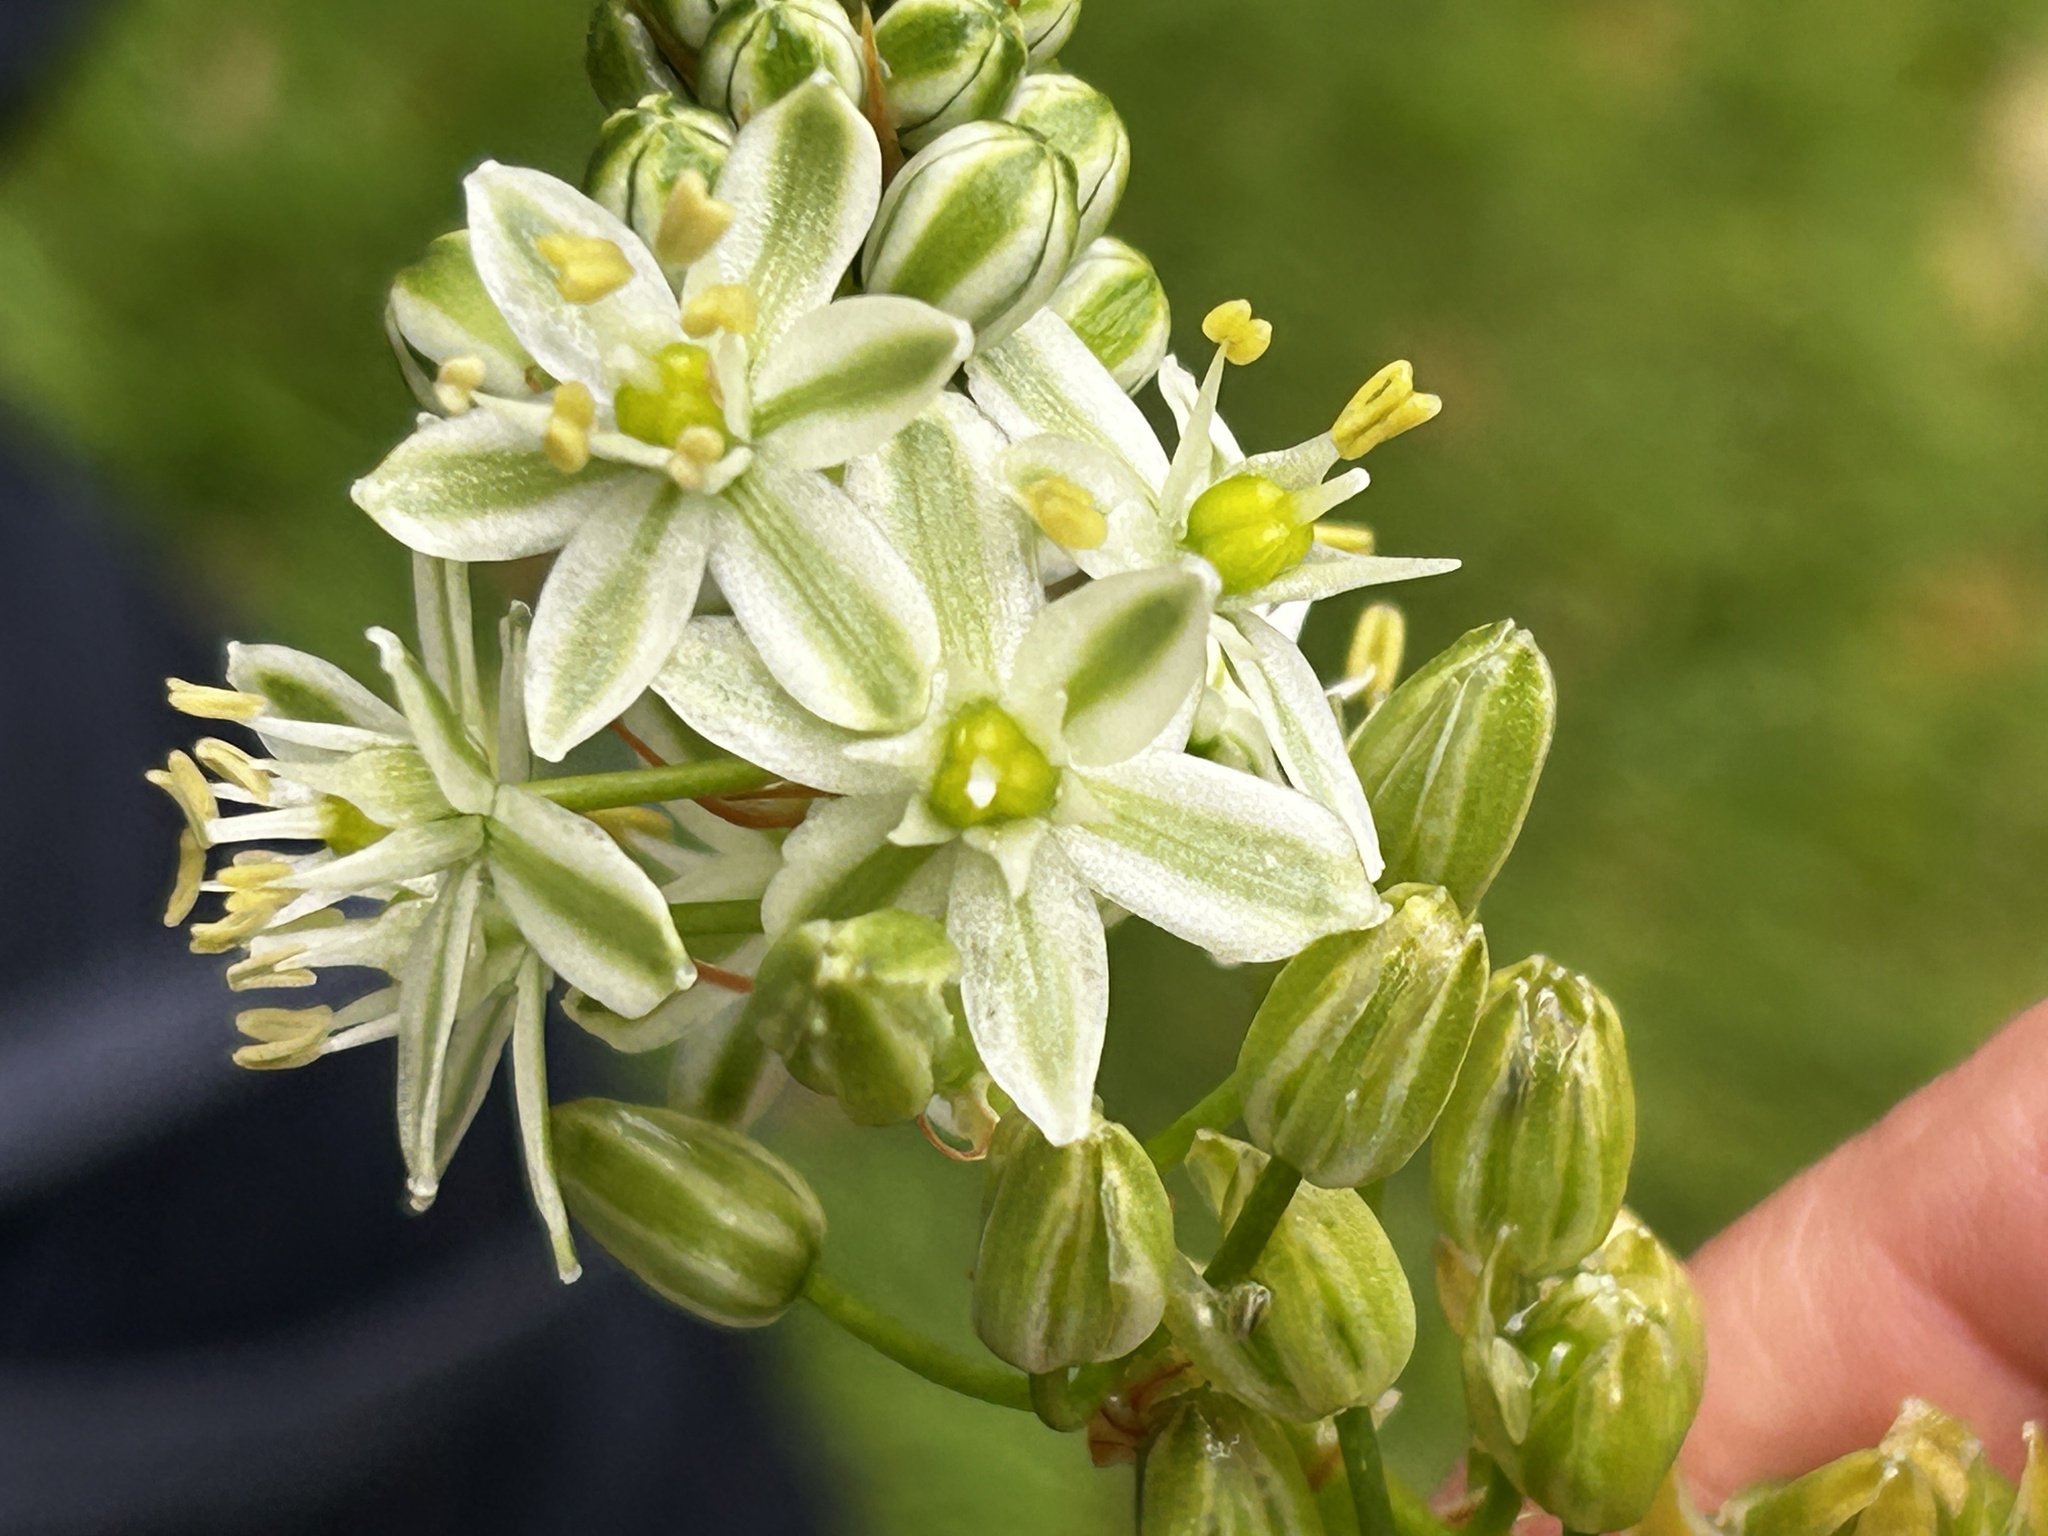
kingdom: Plantae
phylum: Tracheophyta
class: Liliopsida
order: Asparagales
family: Asparagaceae
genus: Albuca
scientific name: Albuca bracteata
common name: Sea-onion
